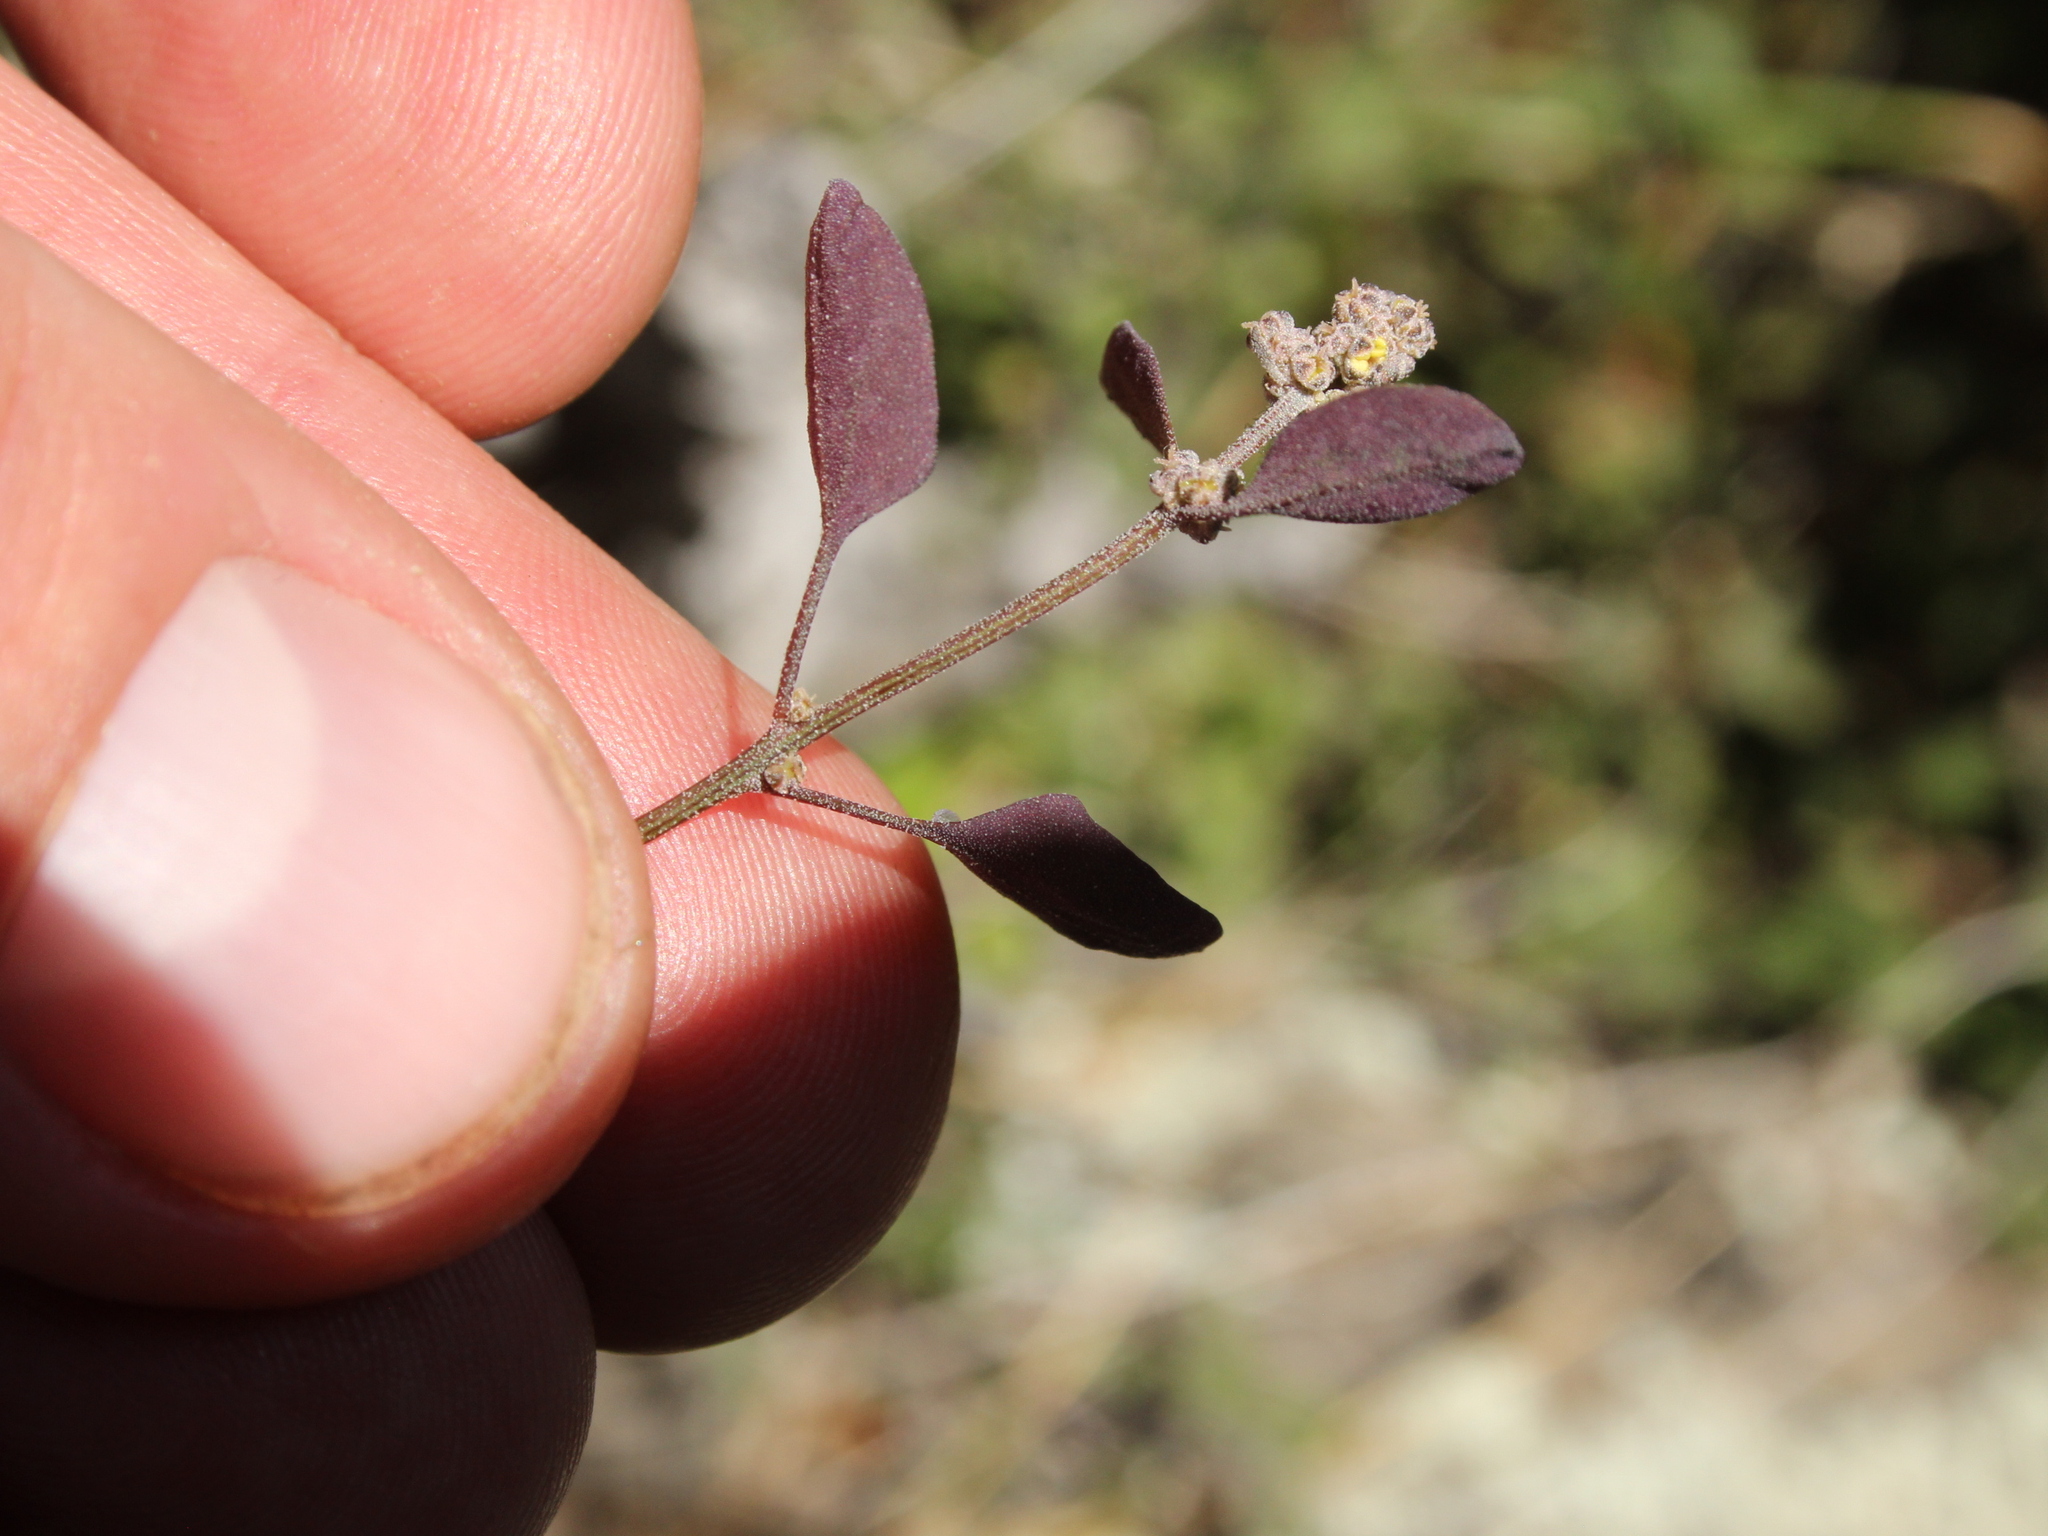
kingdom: Plantae
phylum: Tracheophyta
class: Magnoliopsida
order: Caryophyllales
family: Amaranthaceae
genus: Chenopodium
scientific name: Chenopodium allanii
